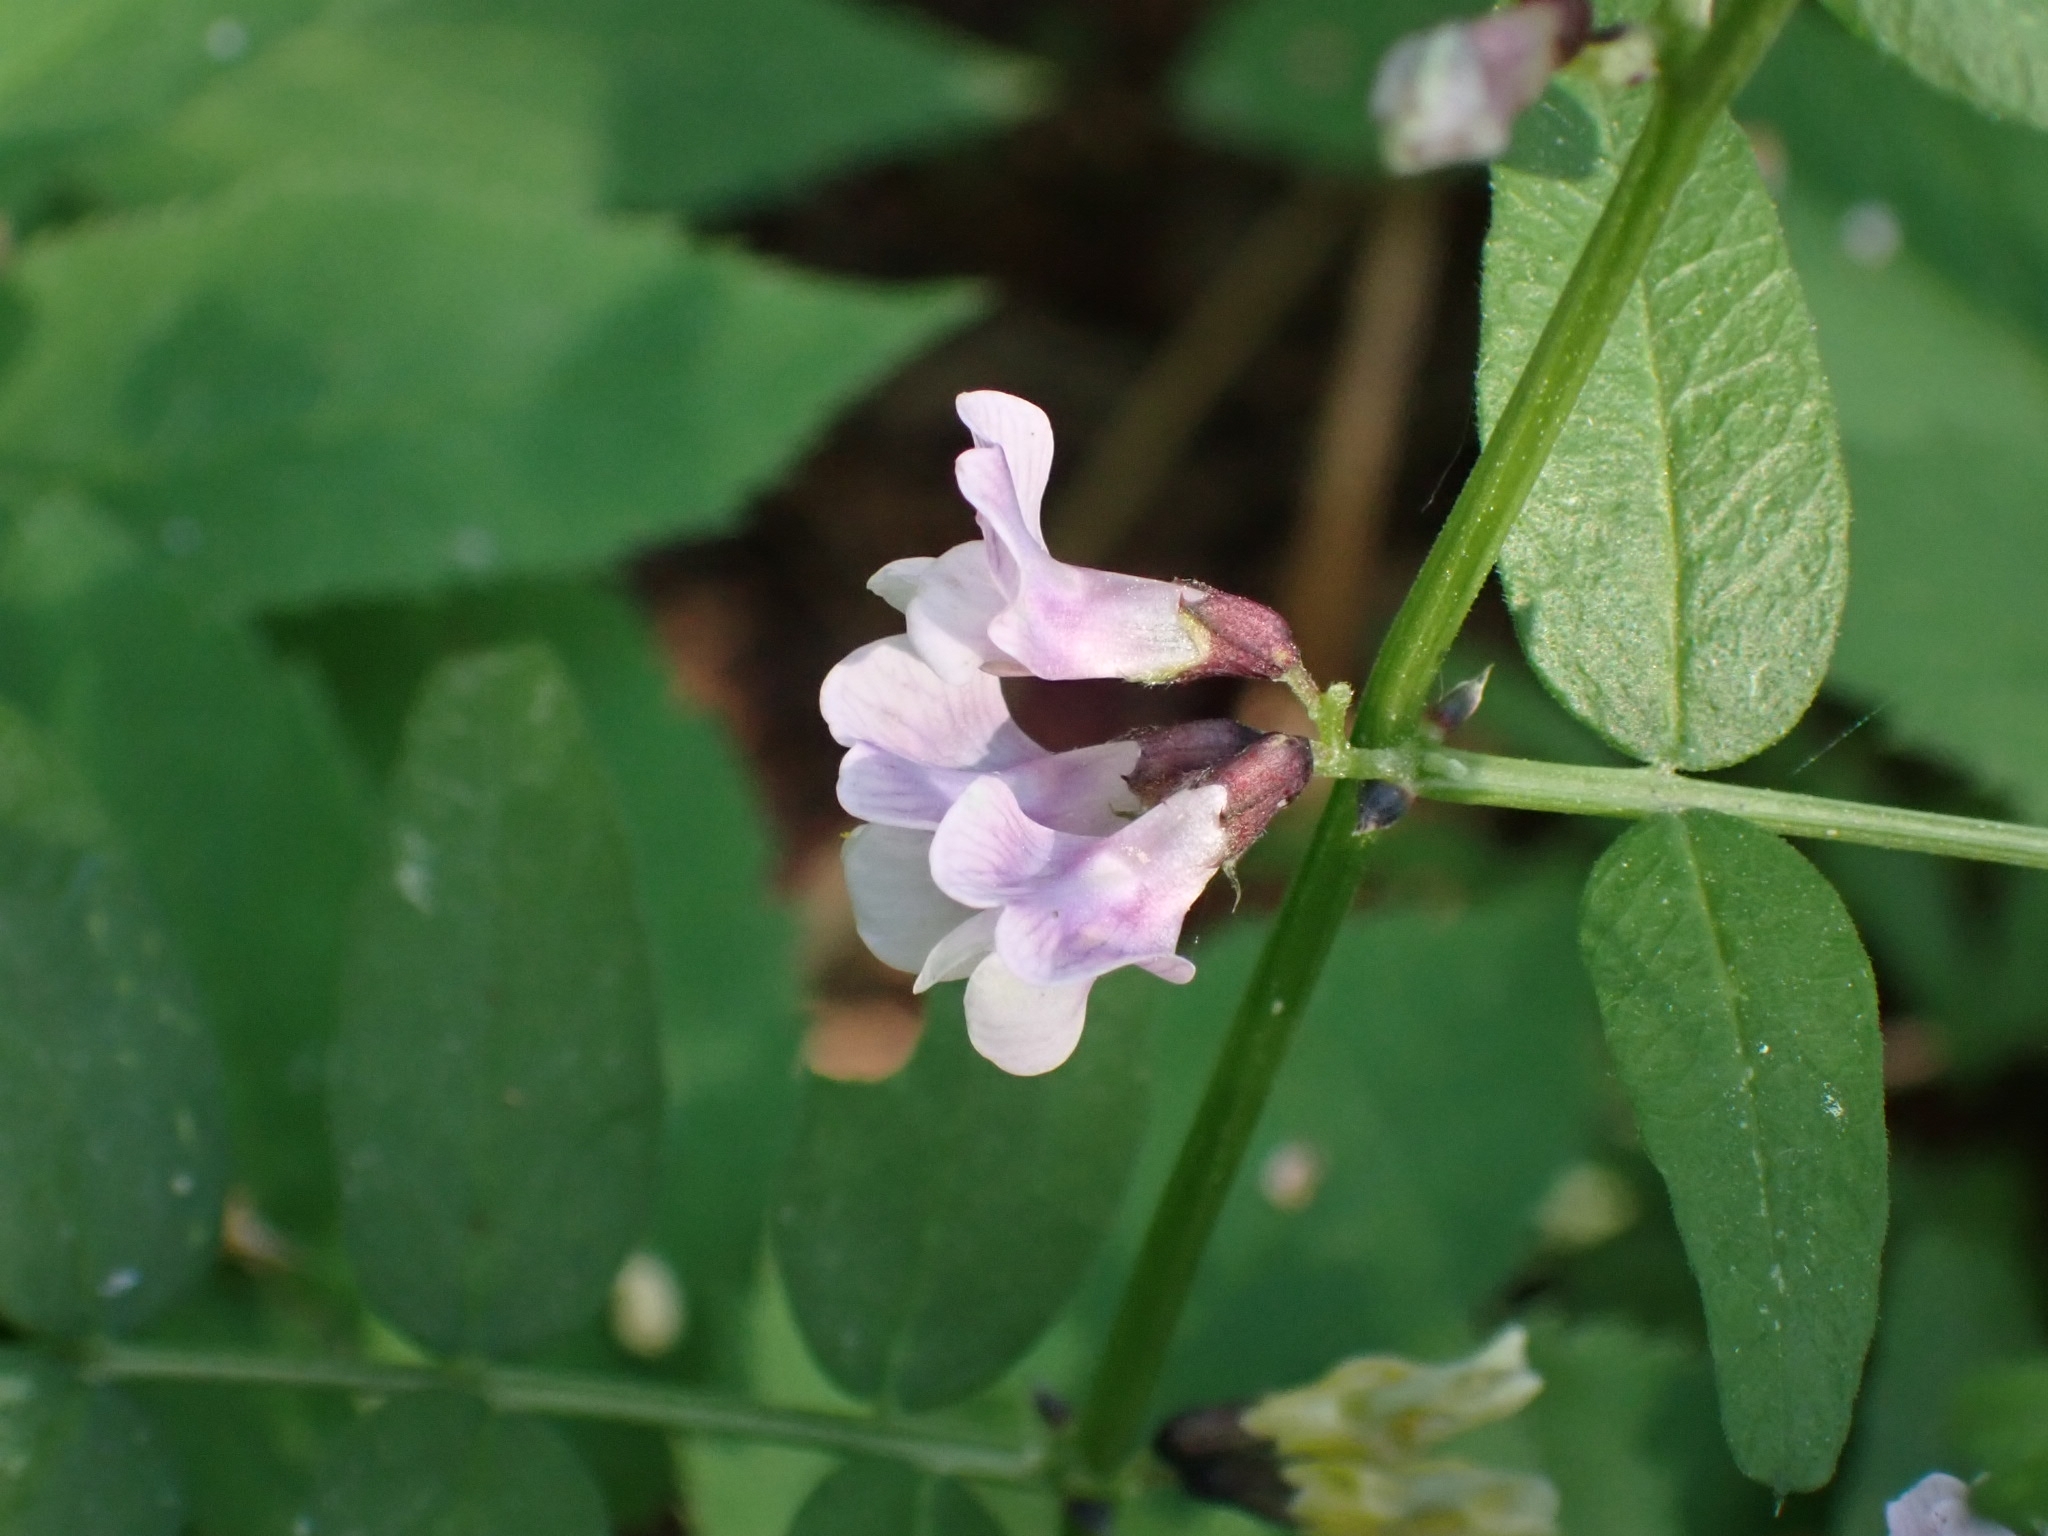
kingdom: Plantae
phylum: Tracheophyta
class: Magnoliopsida
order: Fabales
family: Fabaceae
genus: Vicia
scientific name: Vicia sepium
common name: Bush vetch
